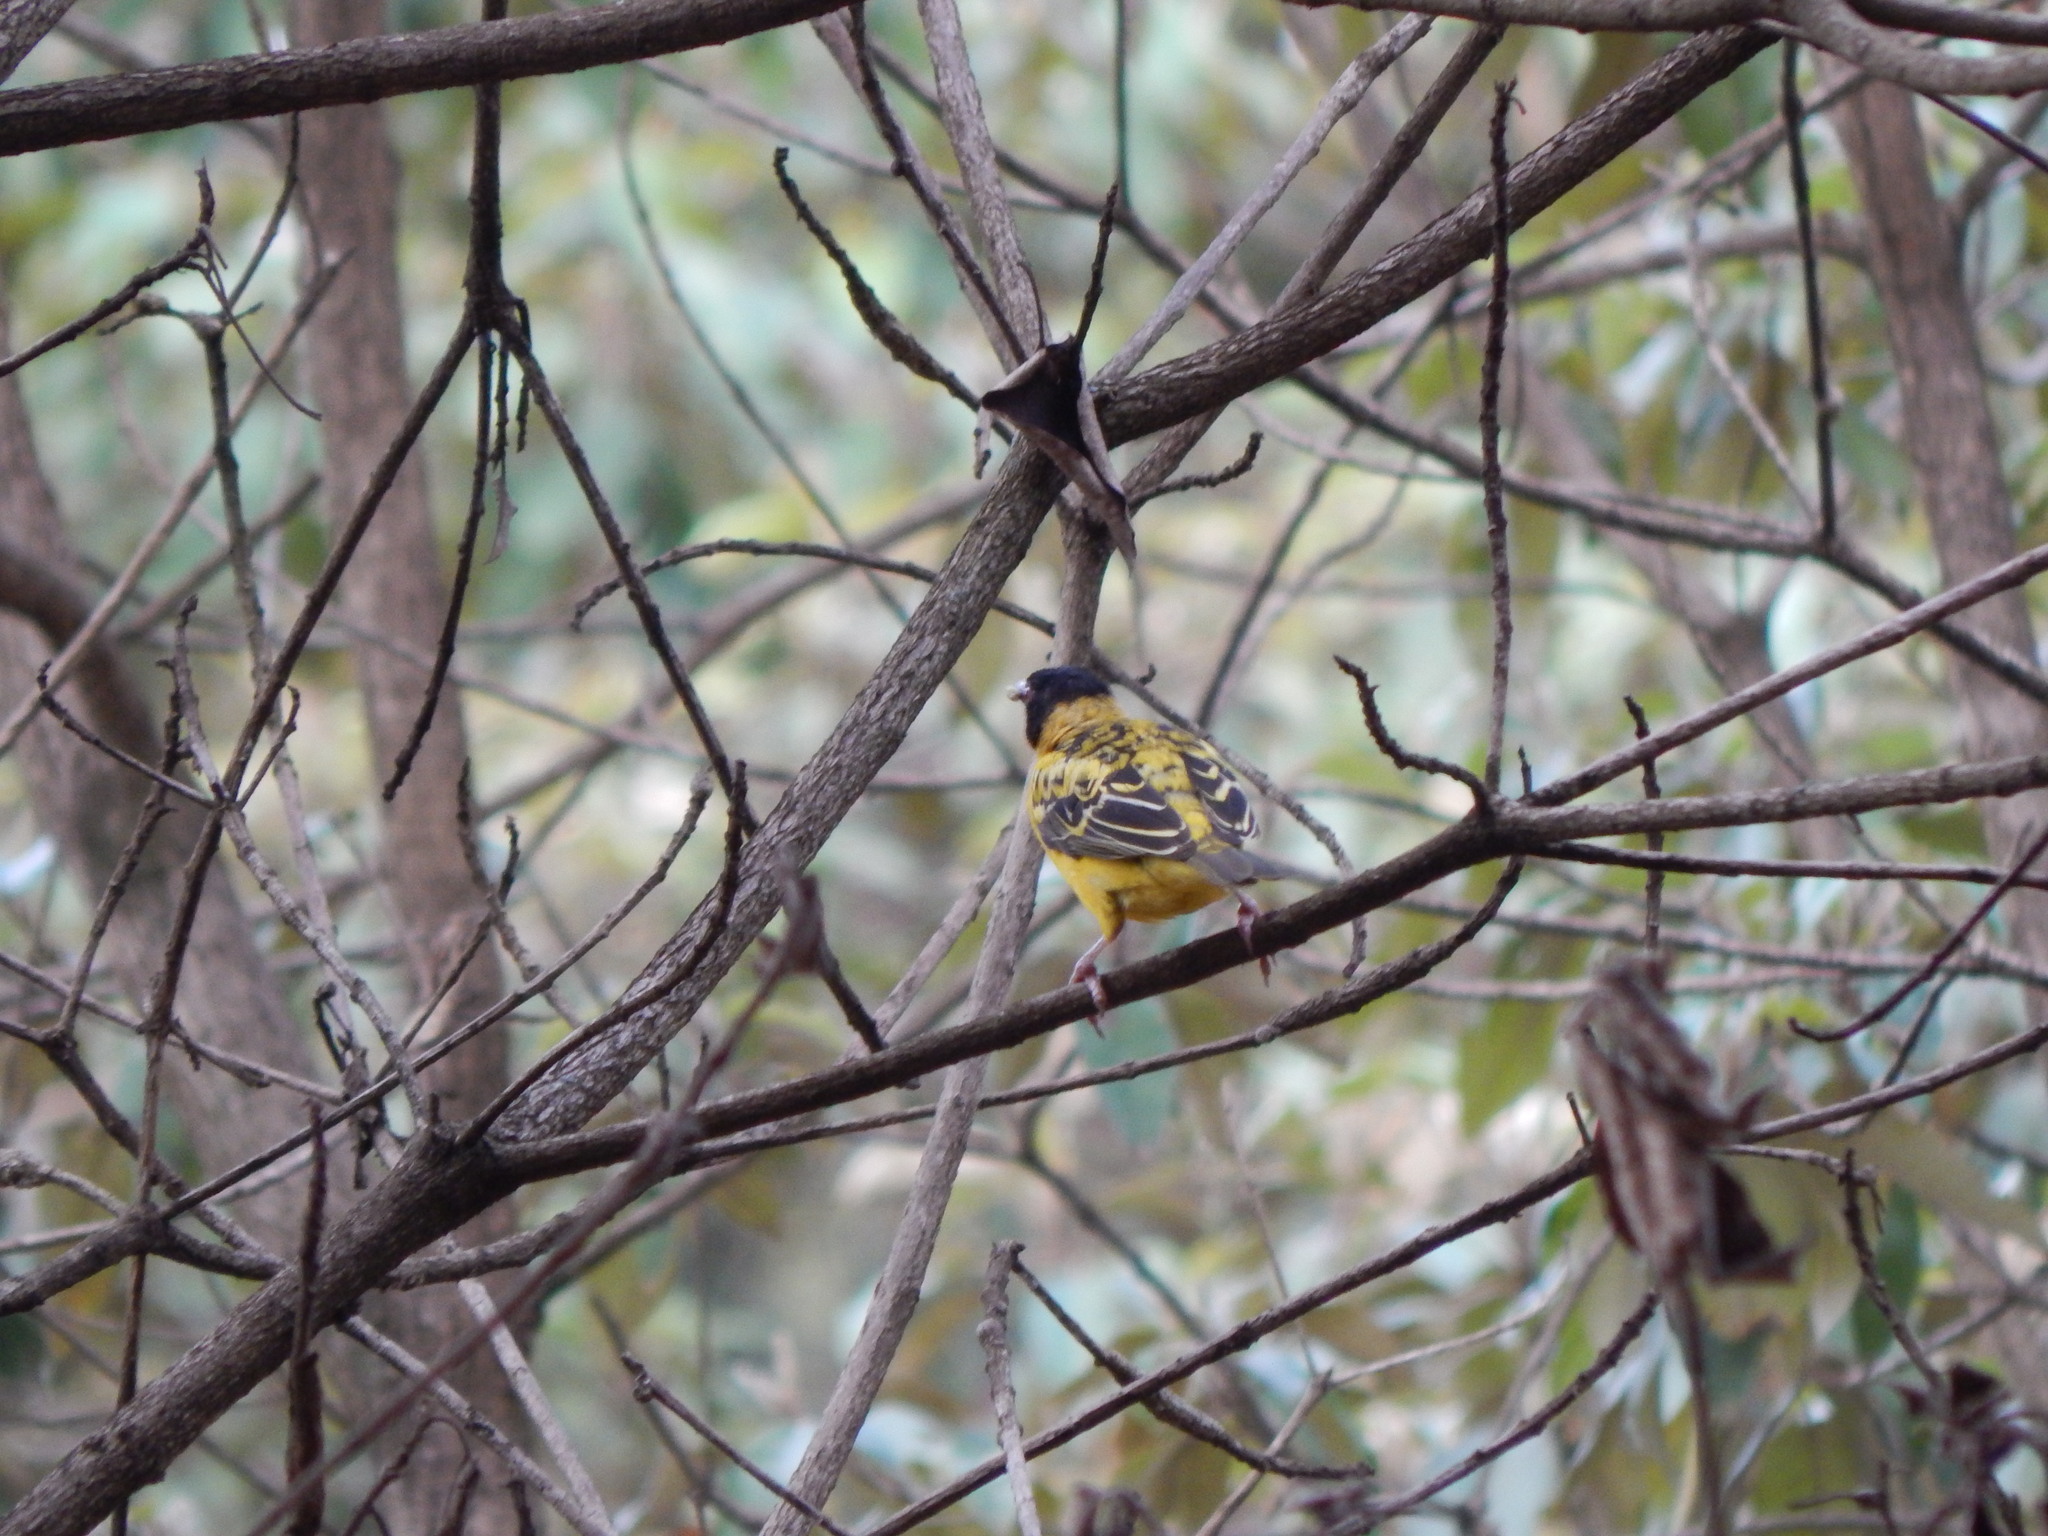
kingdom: Animalia
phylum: Chordata
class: Aves
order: Passeriformes
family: Ploceidae
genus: Ploceus
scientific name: Ploceus cucullatus
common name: Village weaver
